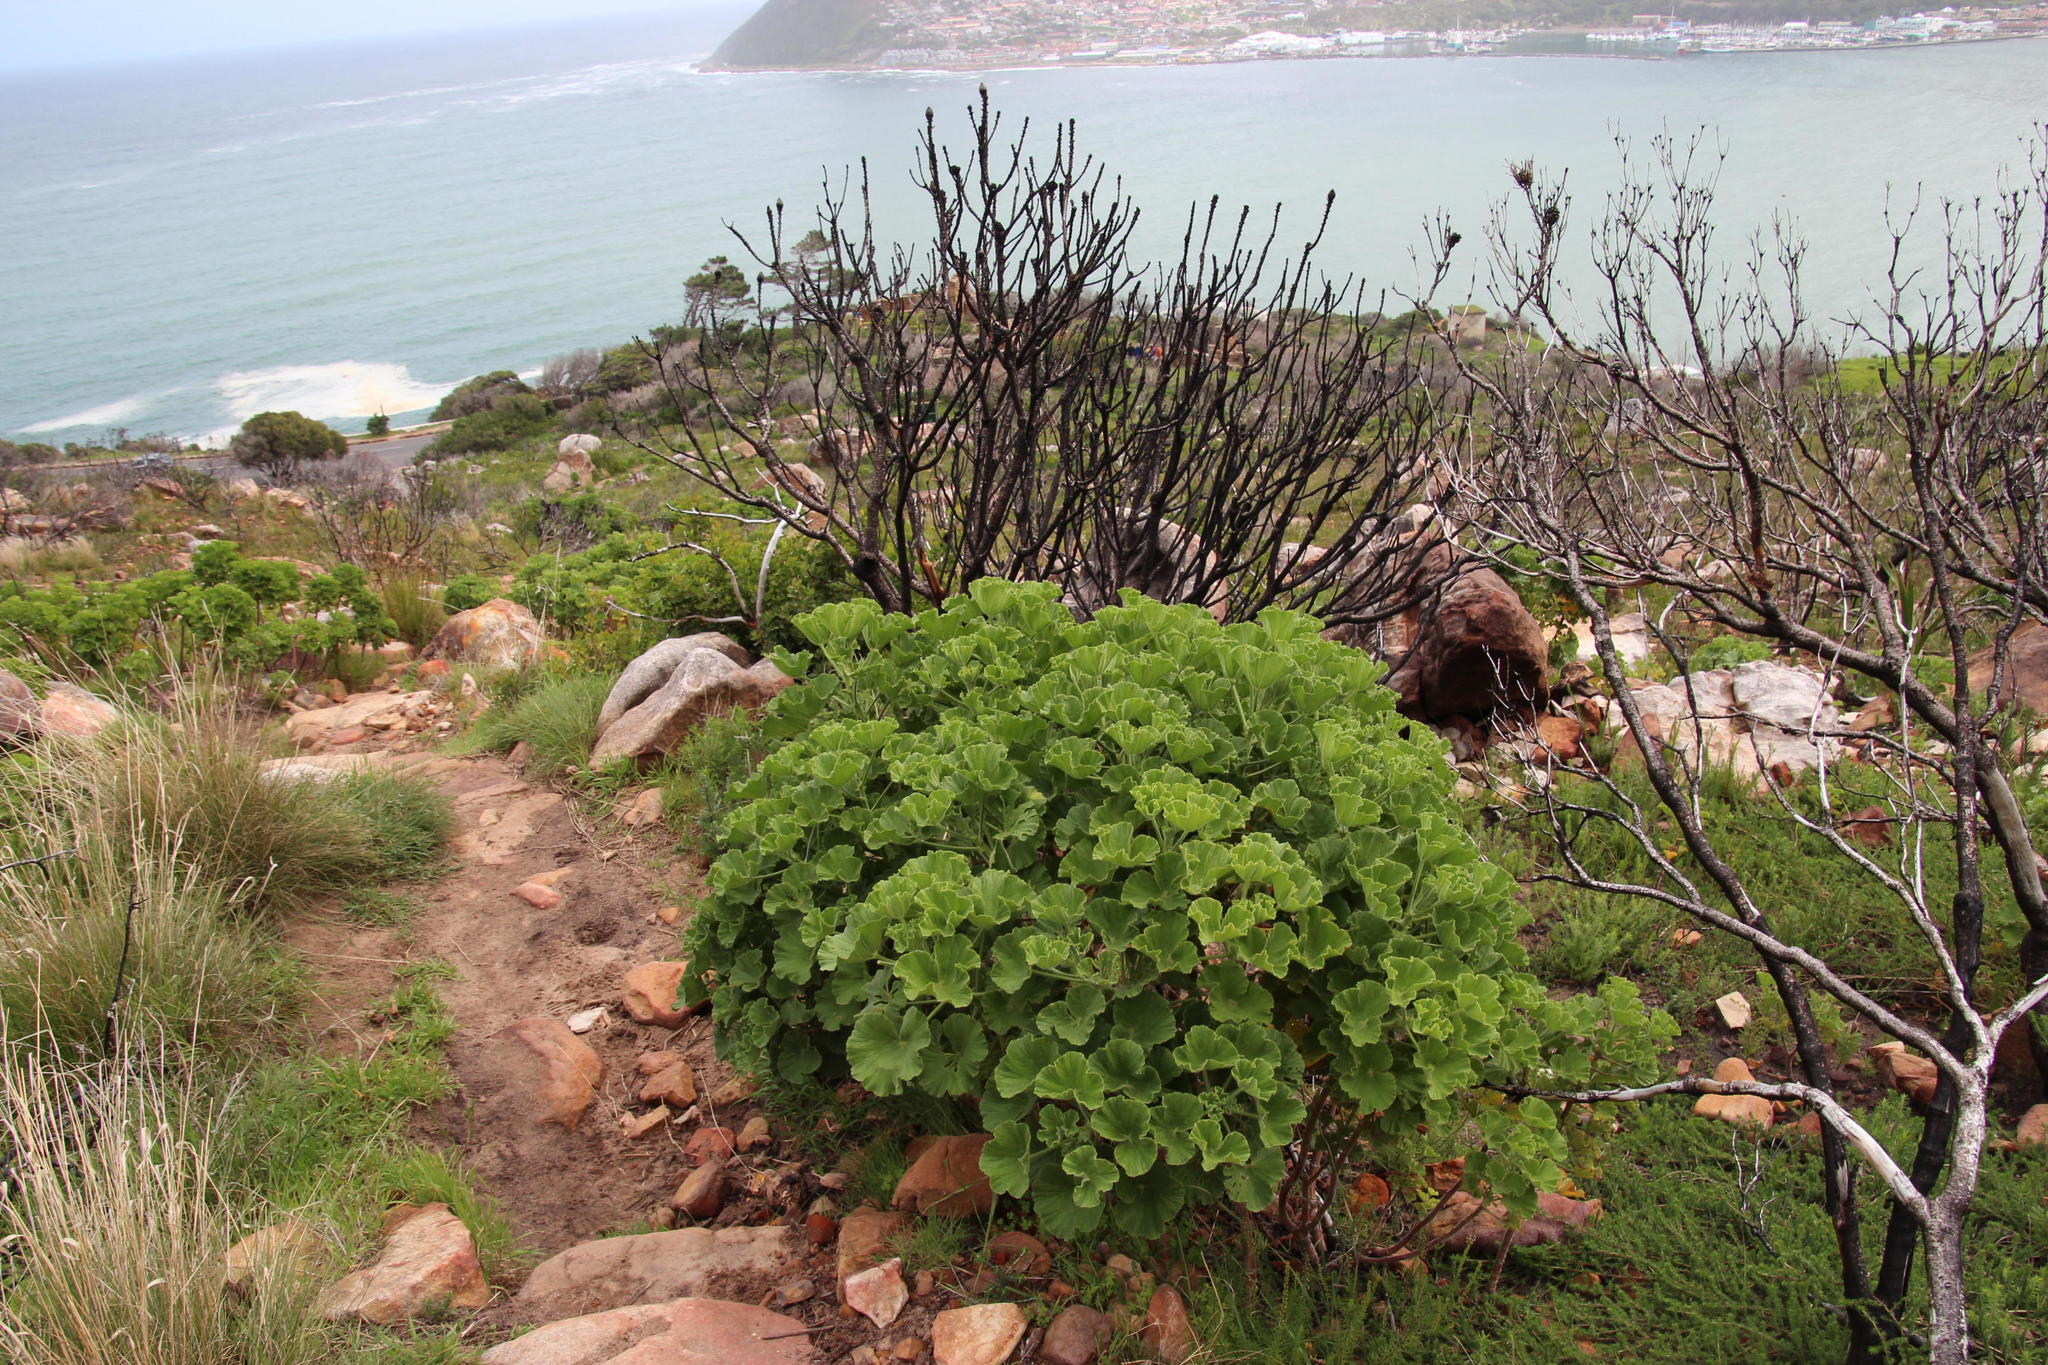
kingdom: Plantae
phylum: Tracheophyta
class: Magnoliopsida
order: Geraniales
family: Geraniaceae
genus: Pelargonium
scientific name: Pelargonium cucullatum
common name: Tree pelargonium
